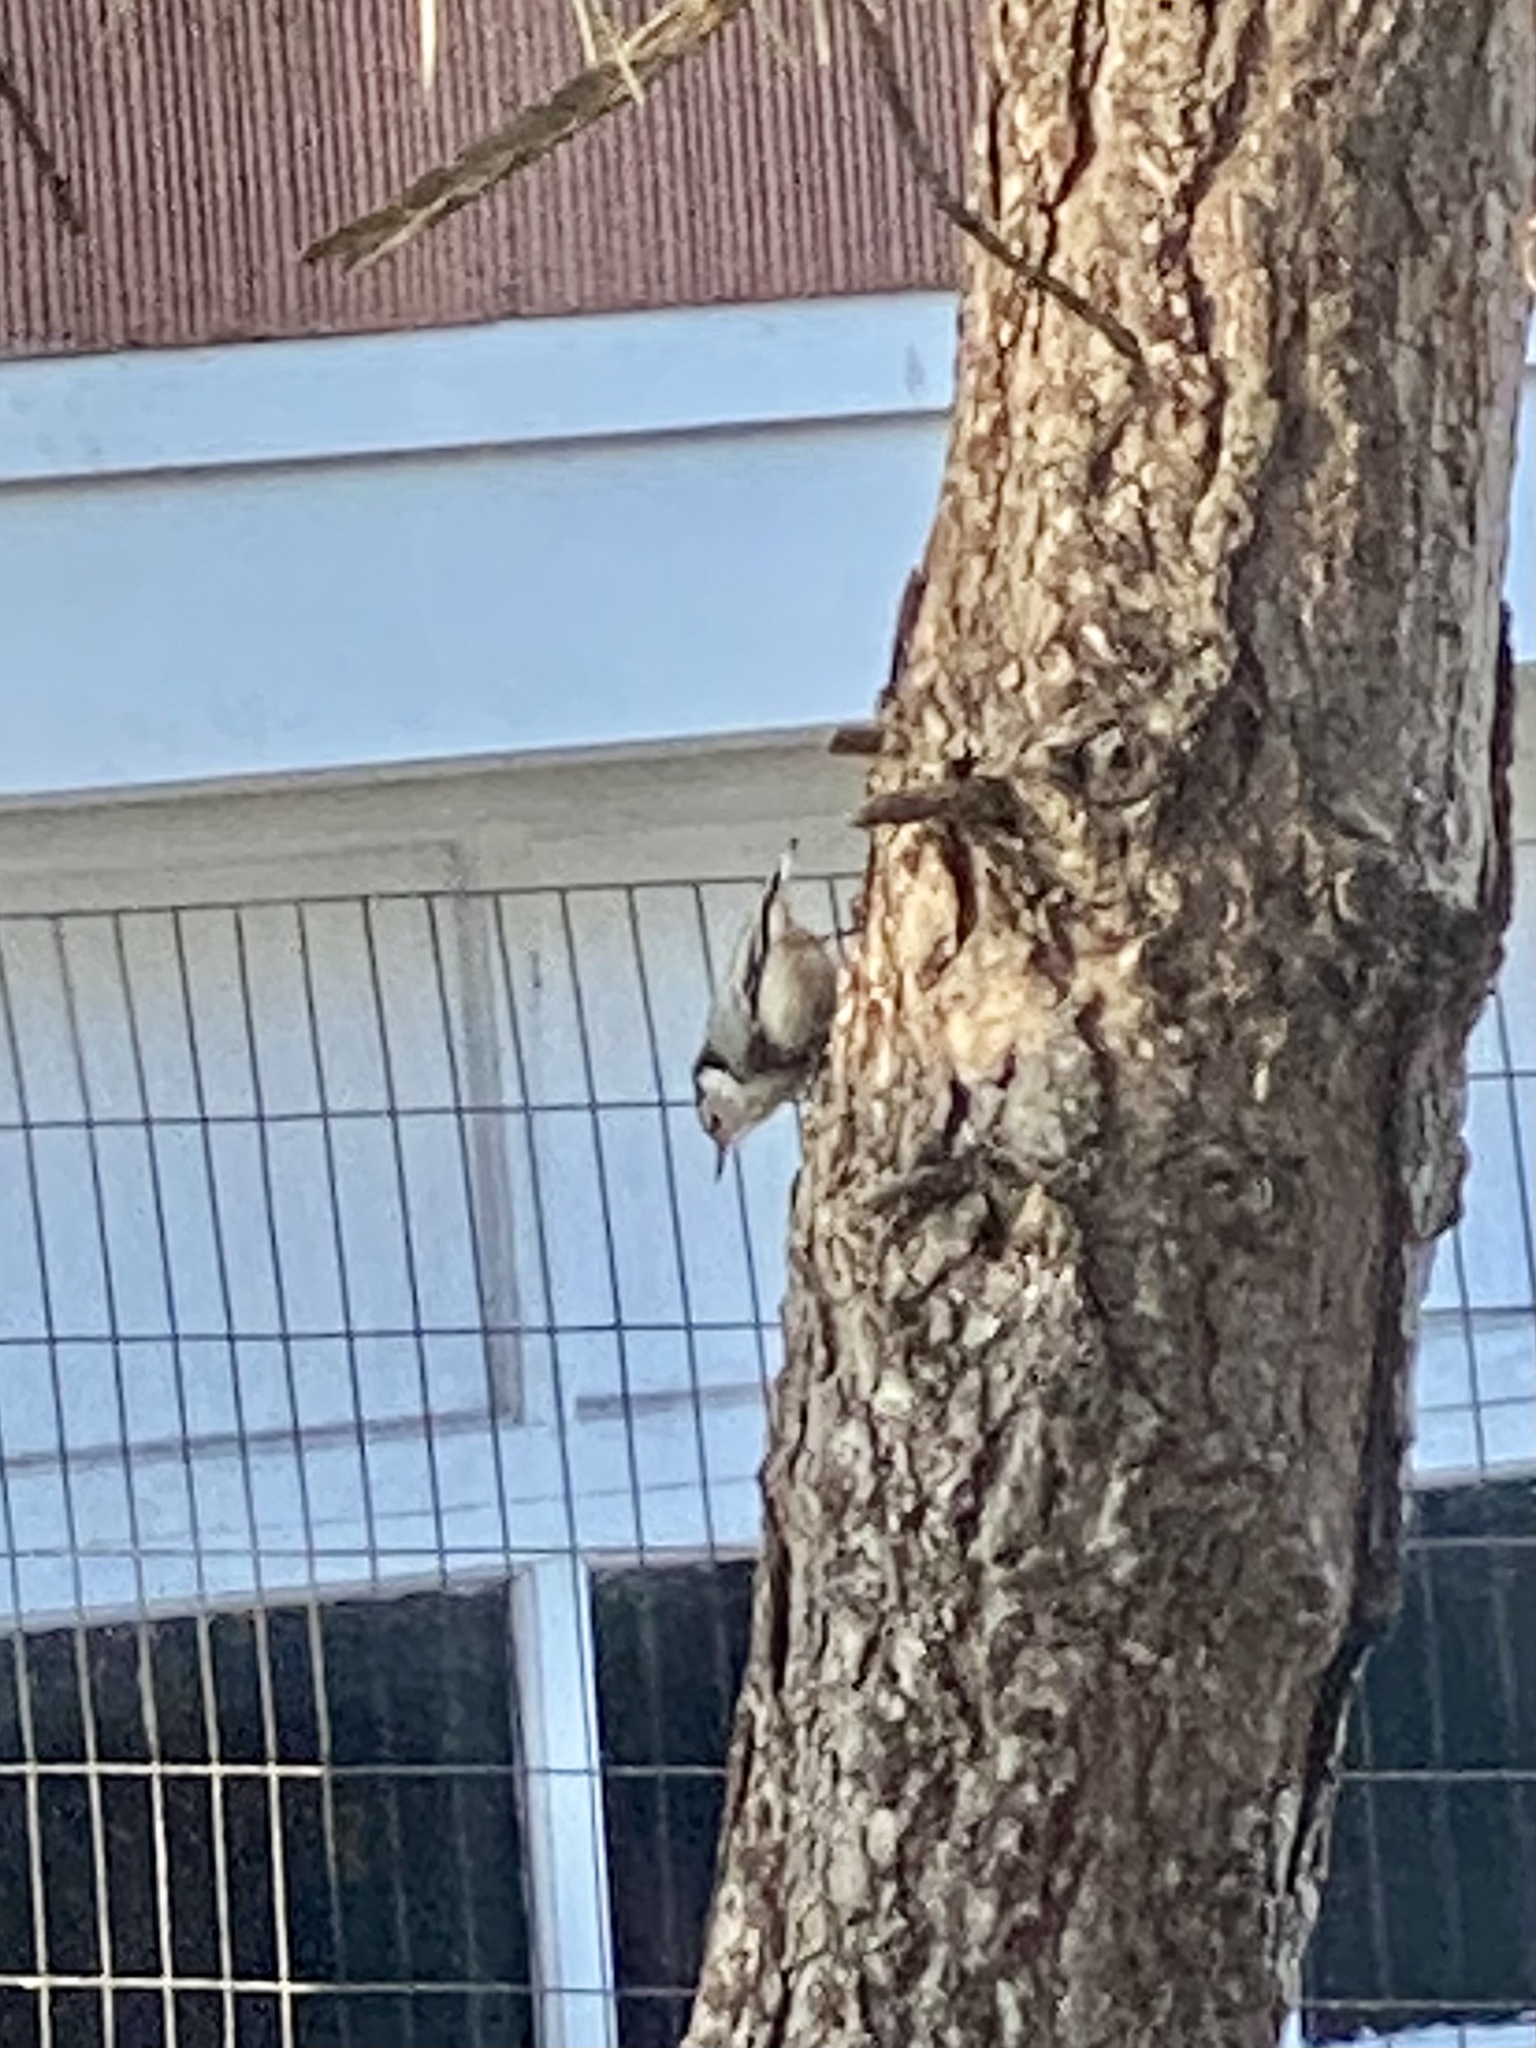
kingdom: Animalia
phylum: Chordata
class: Aves
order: Passeriformes
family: Sittidae
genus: Sitta
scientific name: Sitta carolinensis
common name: White-breasted nuthatch
